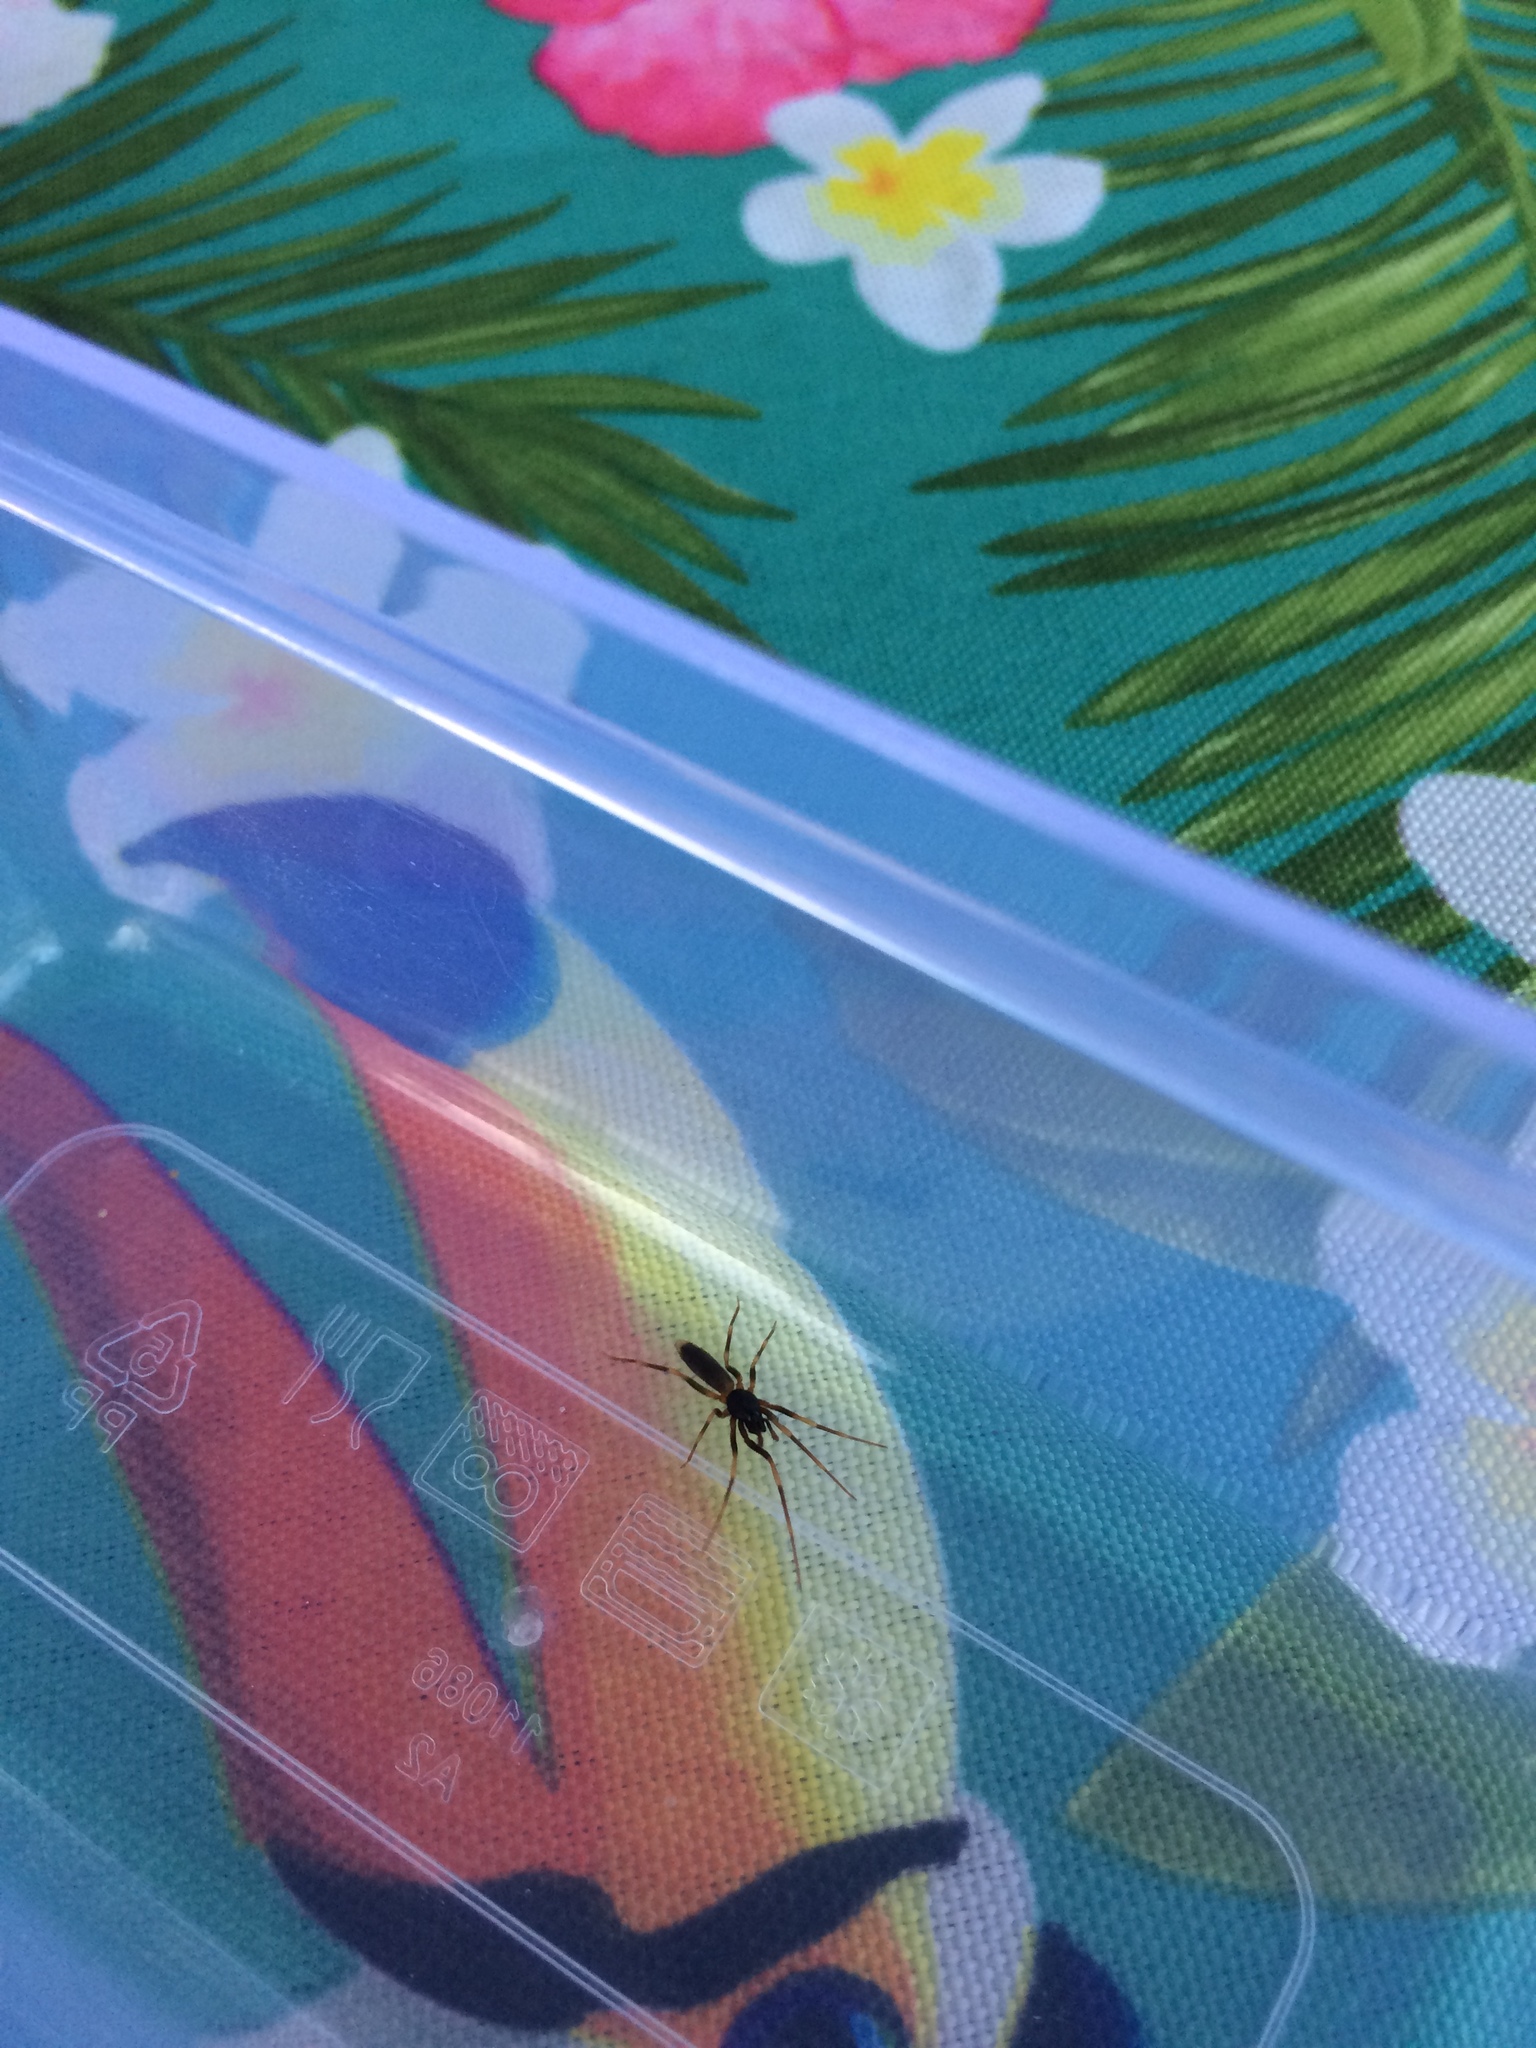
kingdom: Animalia
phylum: Arthropoda
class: Arachnida
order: Araneae
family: Dysderidae
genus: Harpactea
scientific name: Harpactea hombergi
